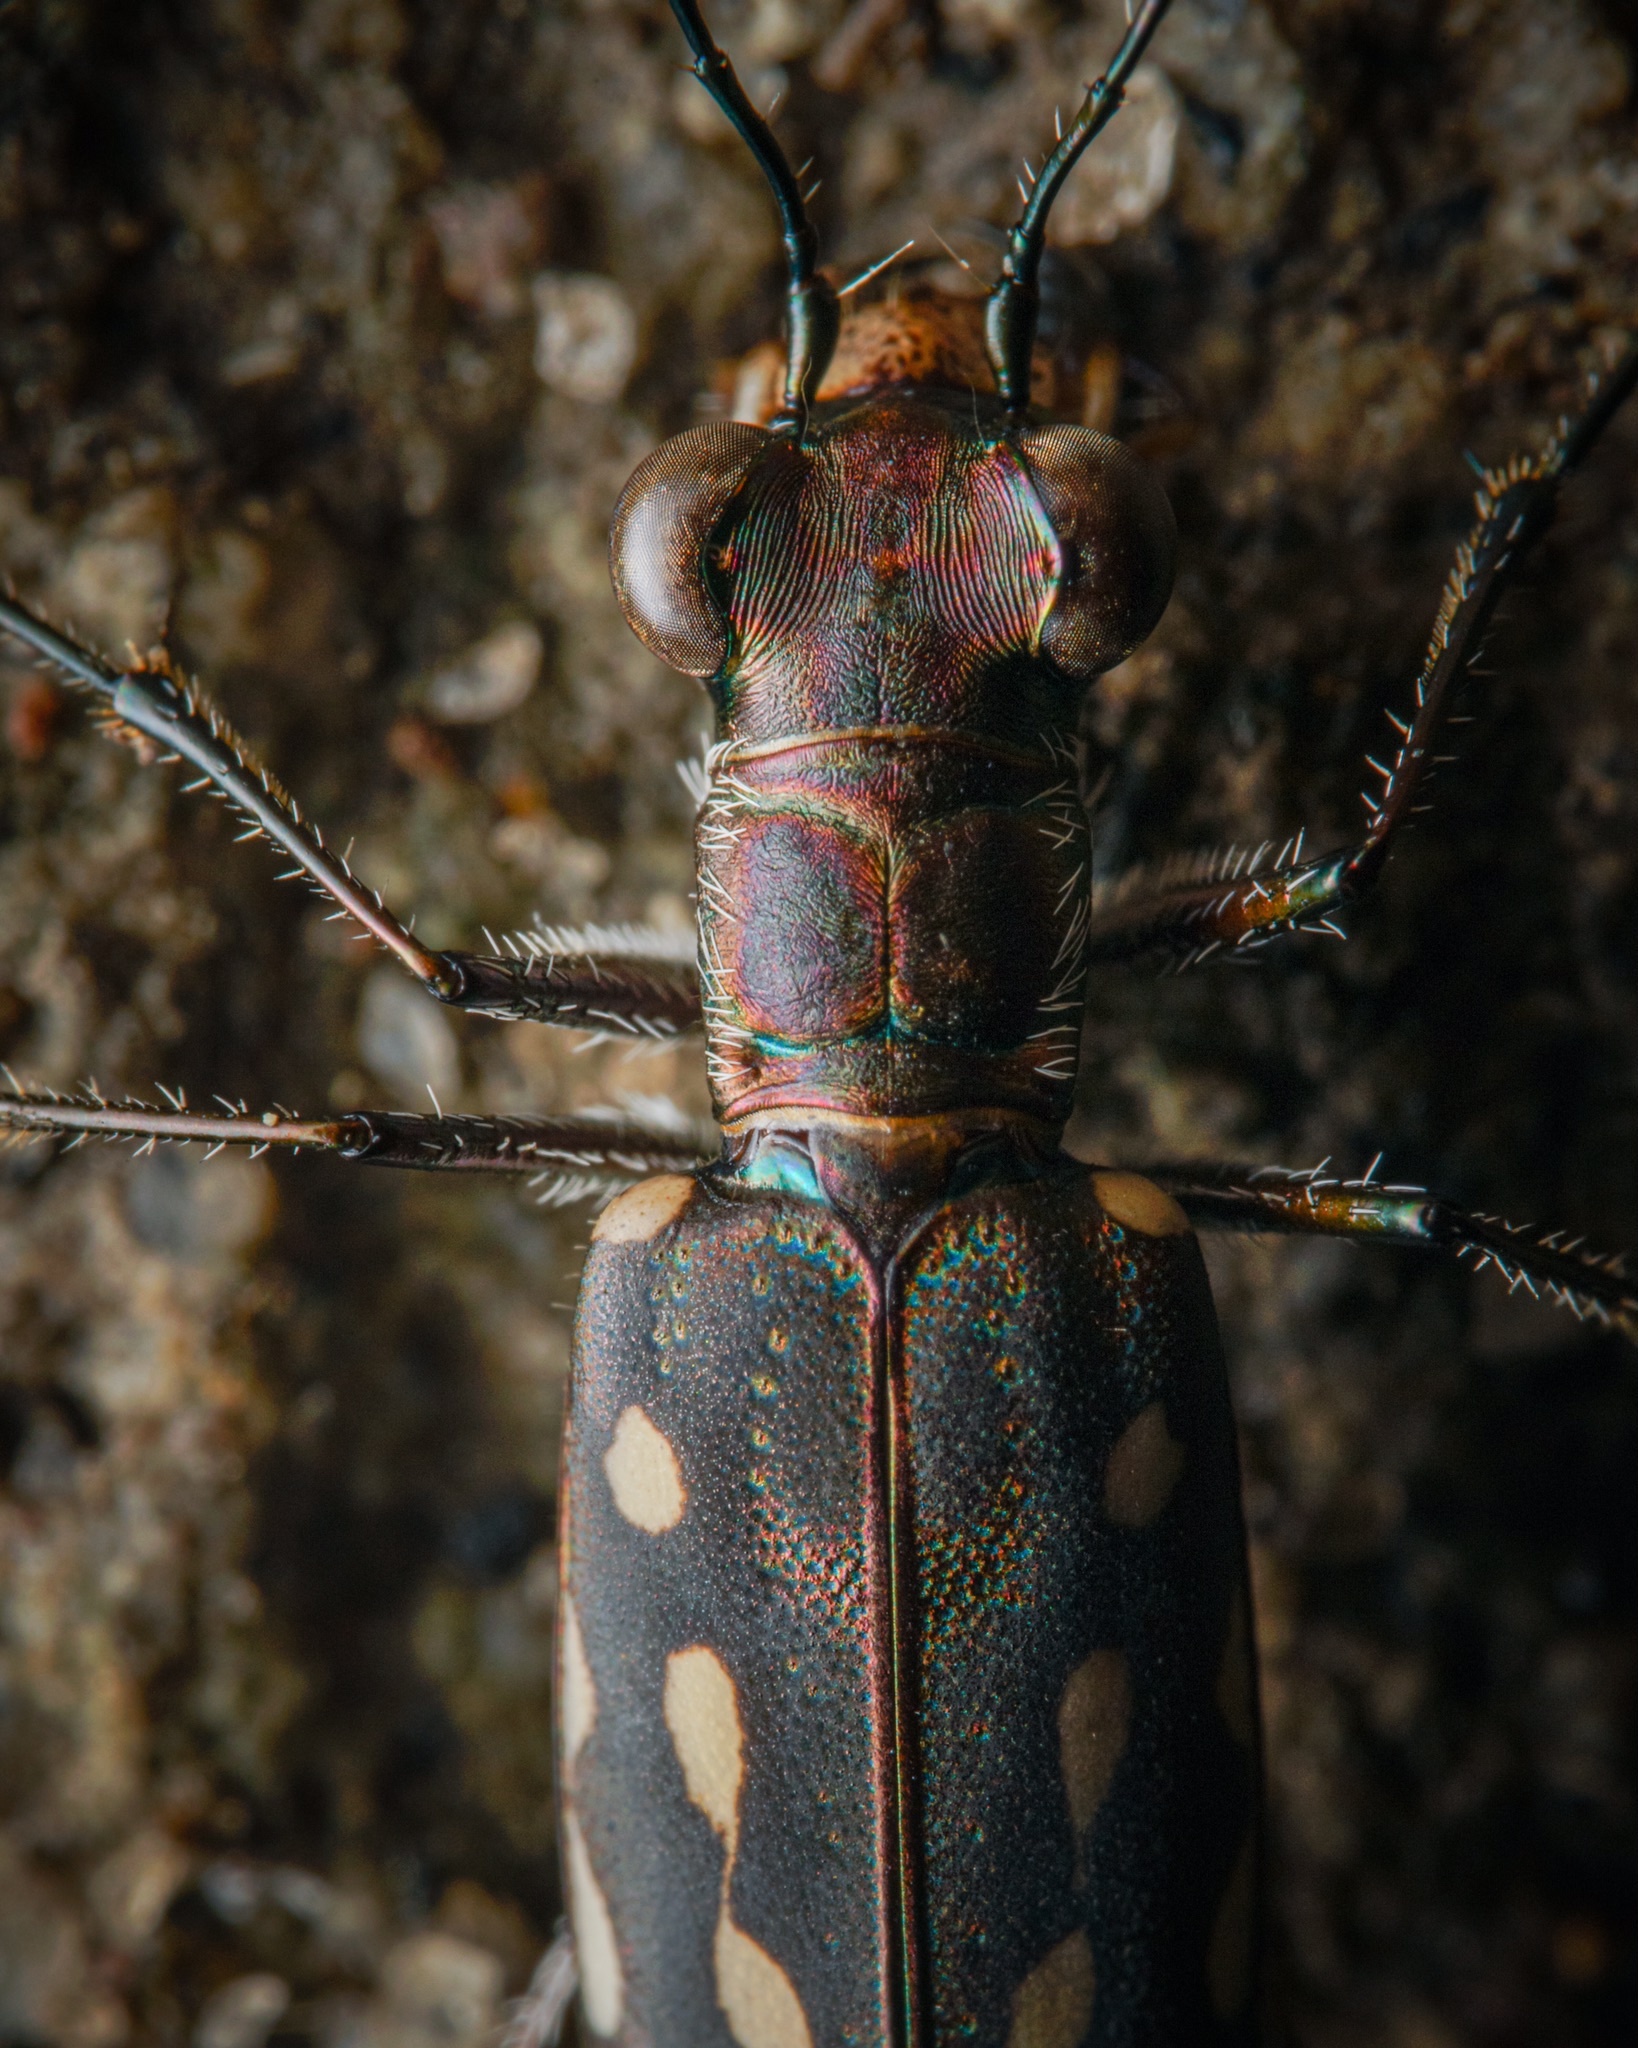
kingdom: Animalia
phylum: Arthropoda
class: Insecta
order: Coleoptera
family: Carabidae
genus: Cicindela
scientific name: Cicindela lacrymosa
